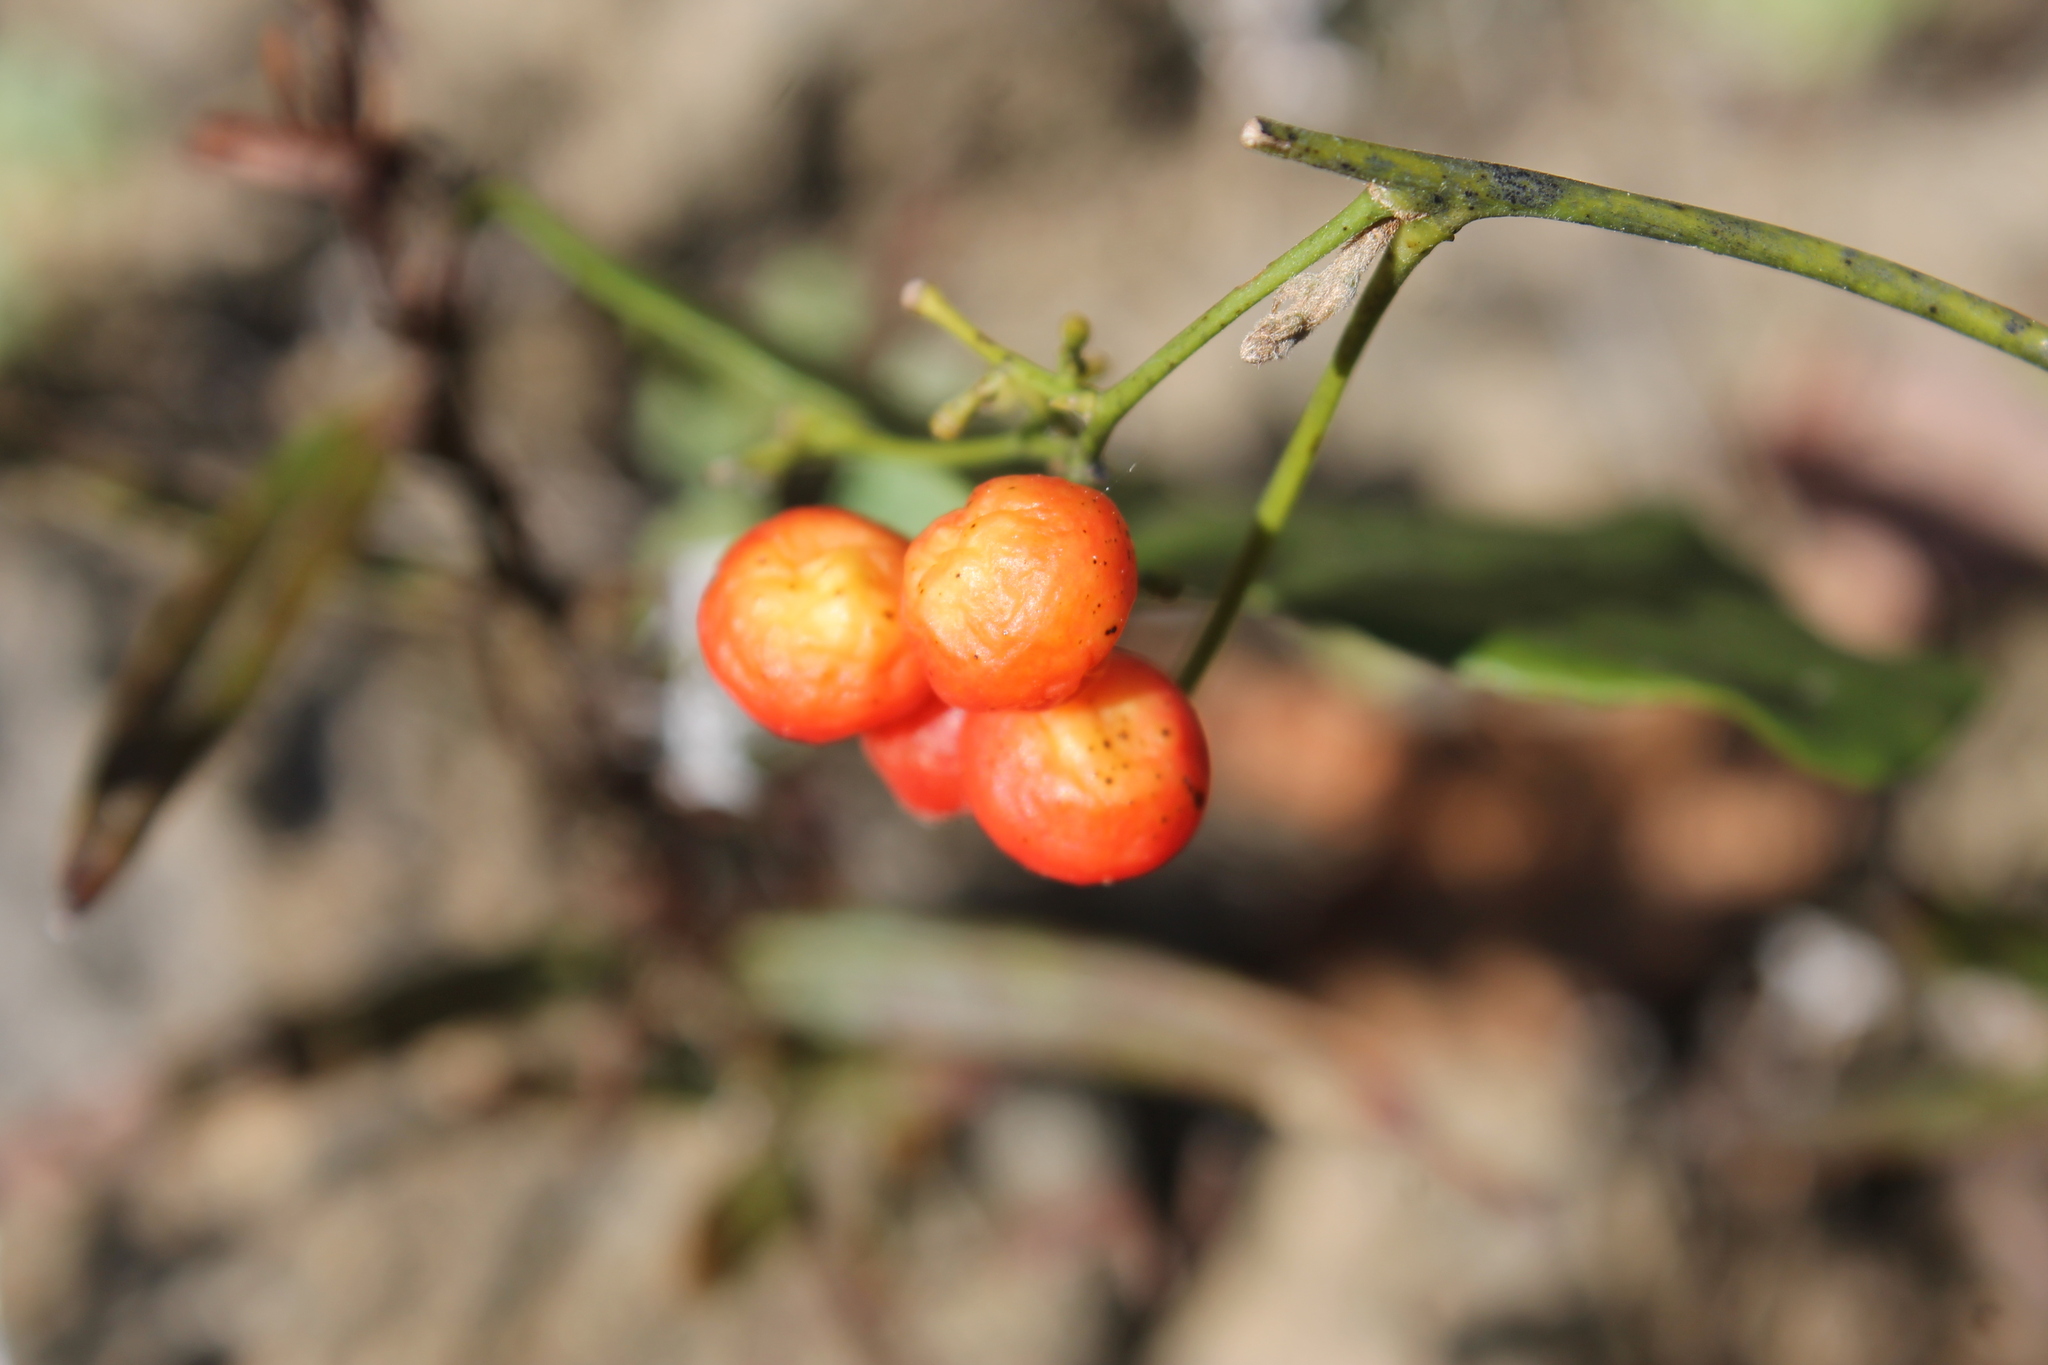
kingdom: Plantae
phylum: Tracheophyta
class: Magnoliopsida
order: Ranunculales
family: Menispermaceae
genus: Cocculus
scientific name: Cocculus carolinus
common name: Carolina moonseed
